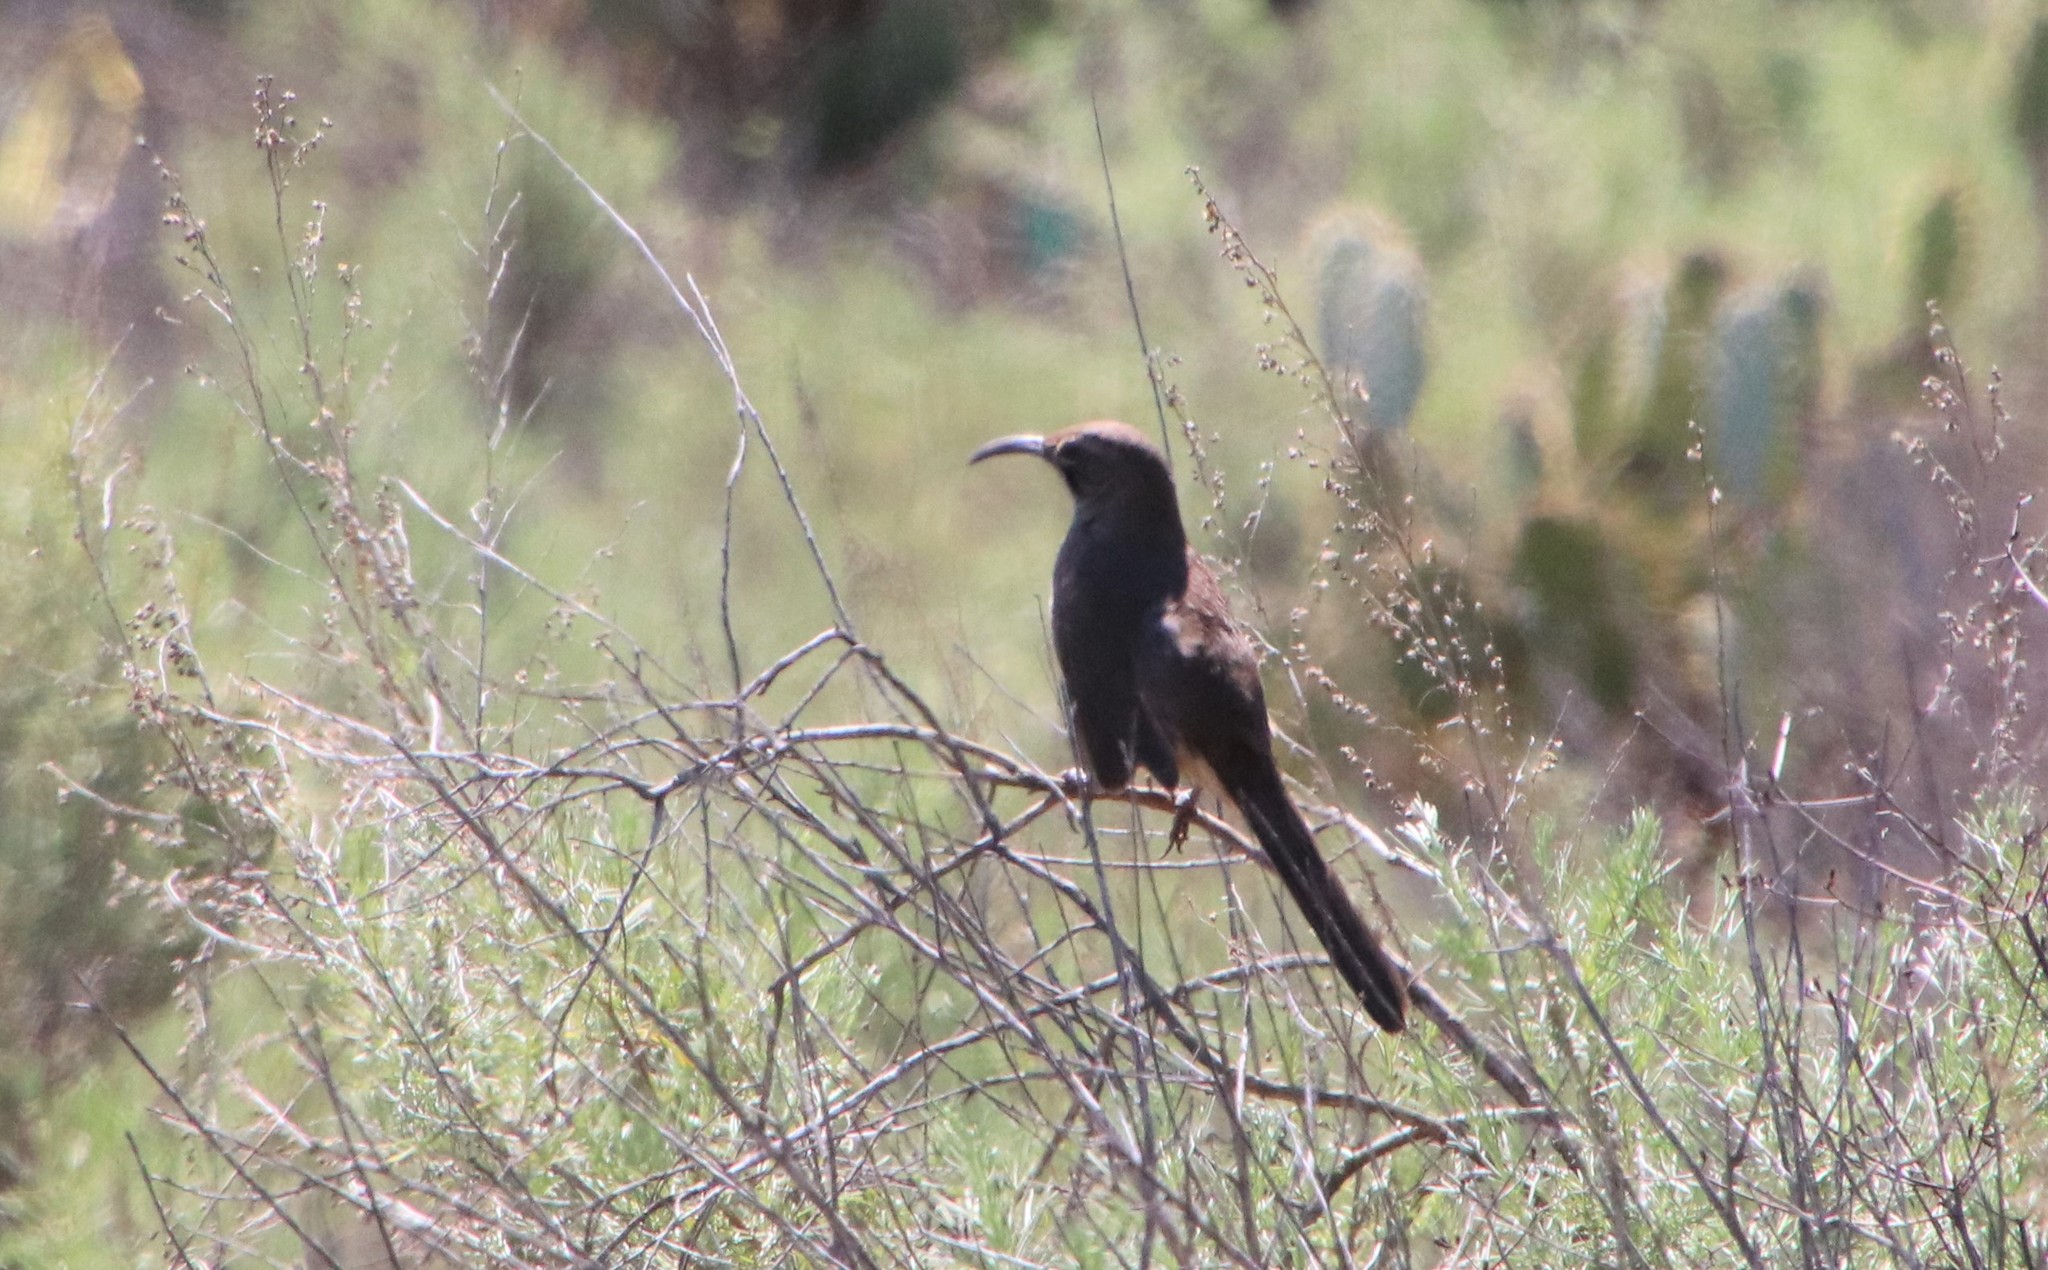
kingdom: Animalia
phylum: Chordata
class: Aves
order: Passeriformes
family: Mimidae
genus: Toxostoma
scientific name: Toxostoma redivivum
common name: California thrasher
